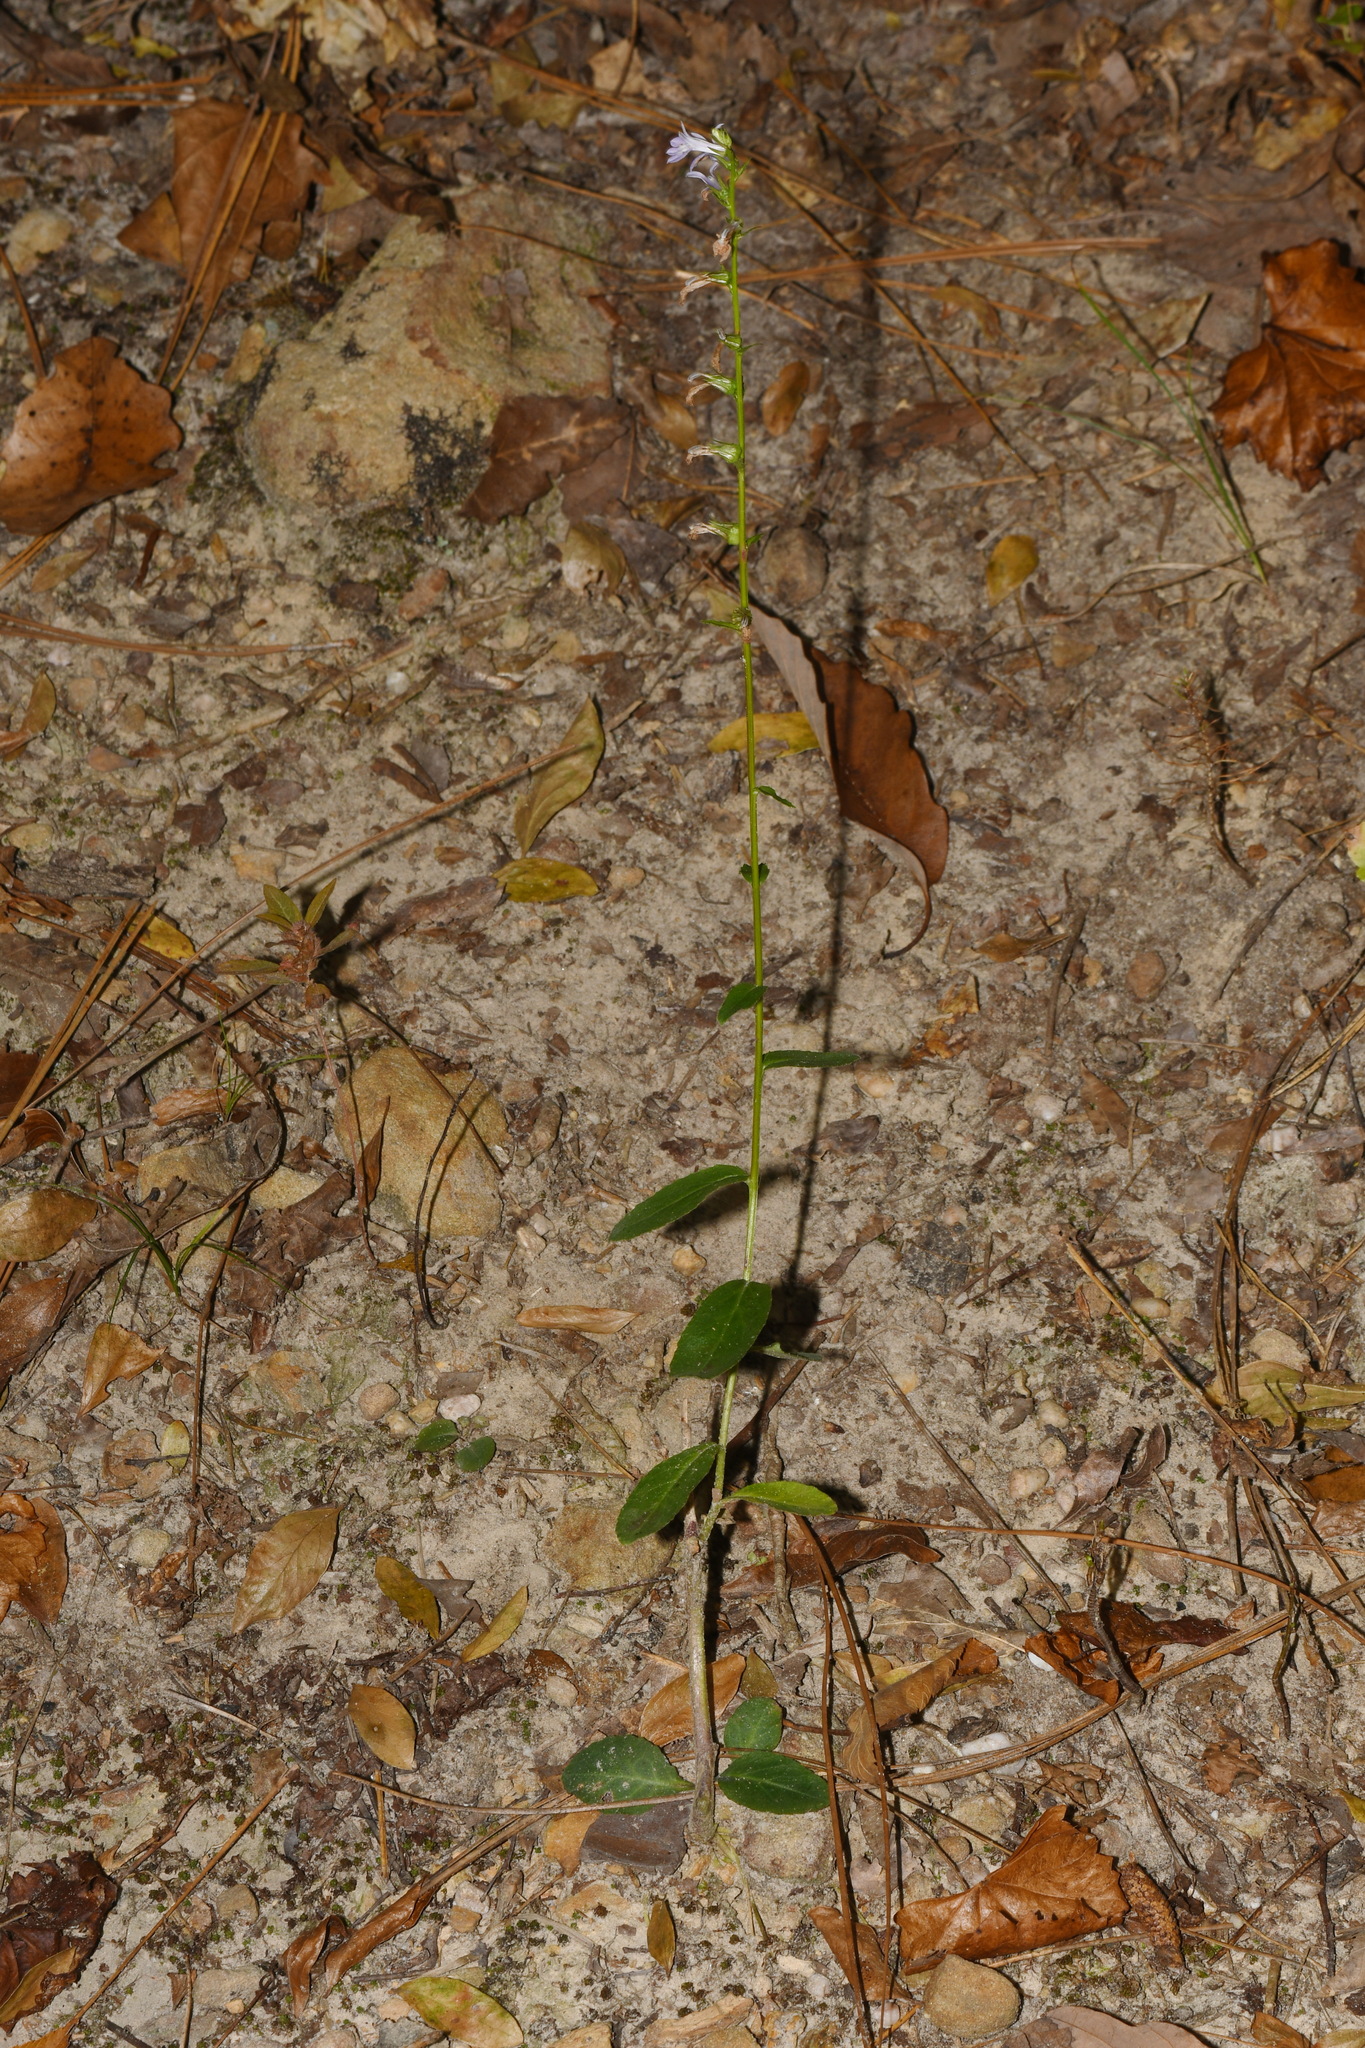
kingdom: Plantae
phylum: Tracheophyta
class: Magnoliopsida
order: Asterales
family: Campanulaceae
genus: Lobelia
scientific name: Lobelia puberula
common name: Purple dewdrop
